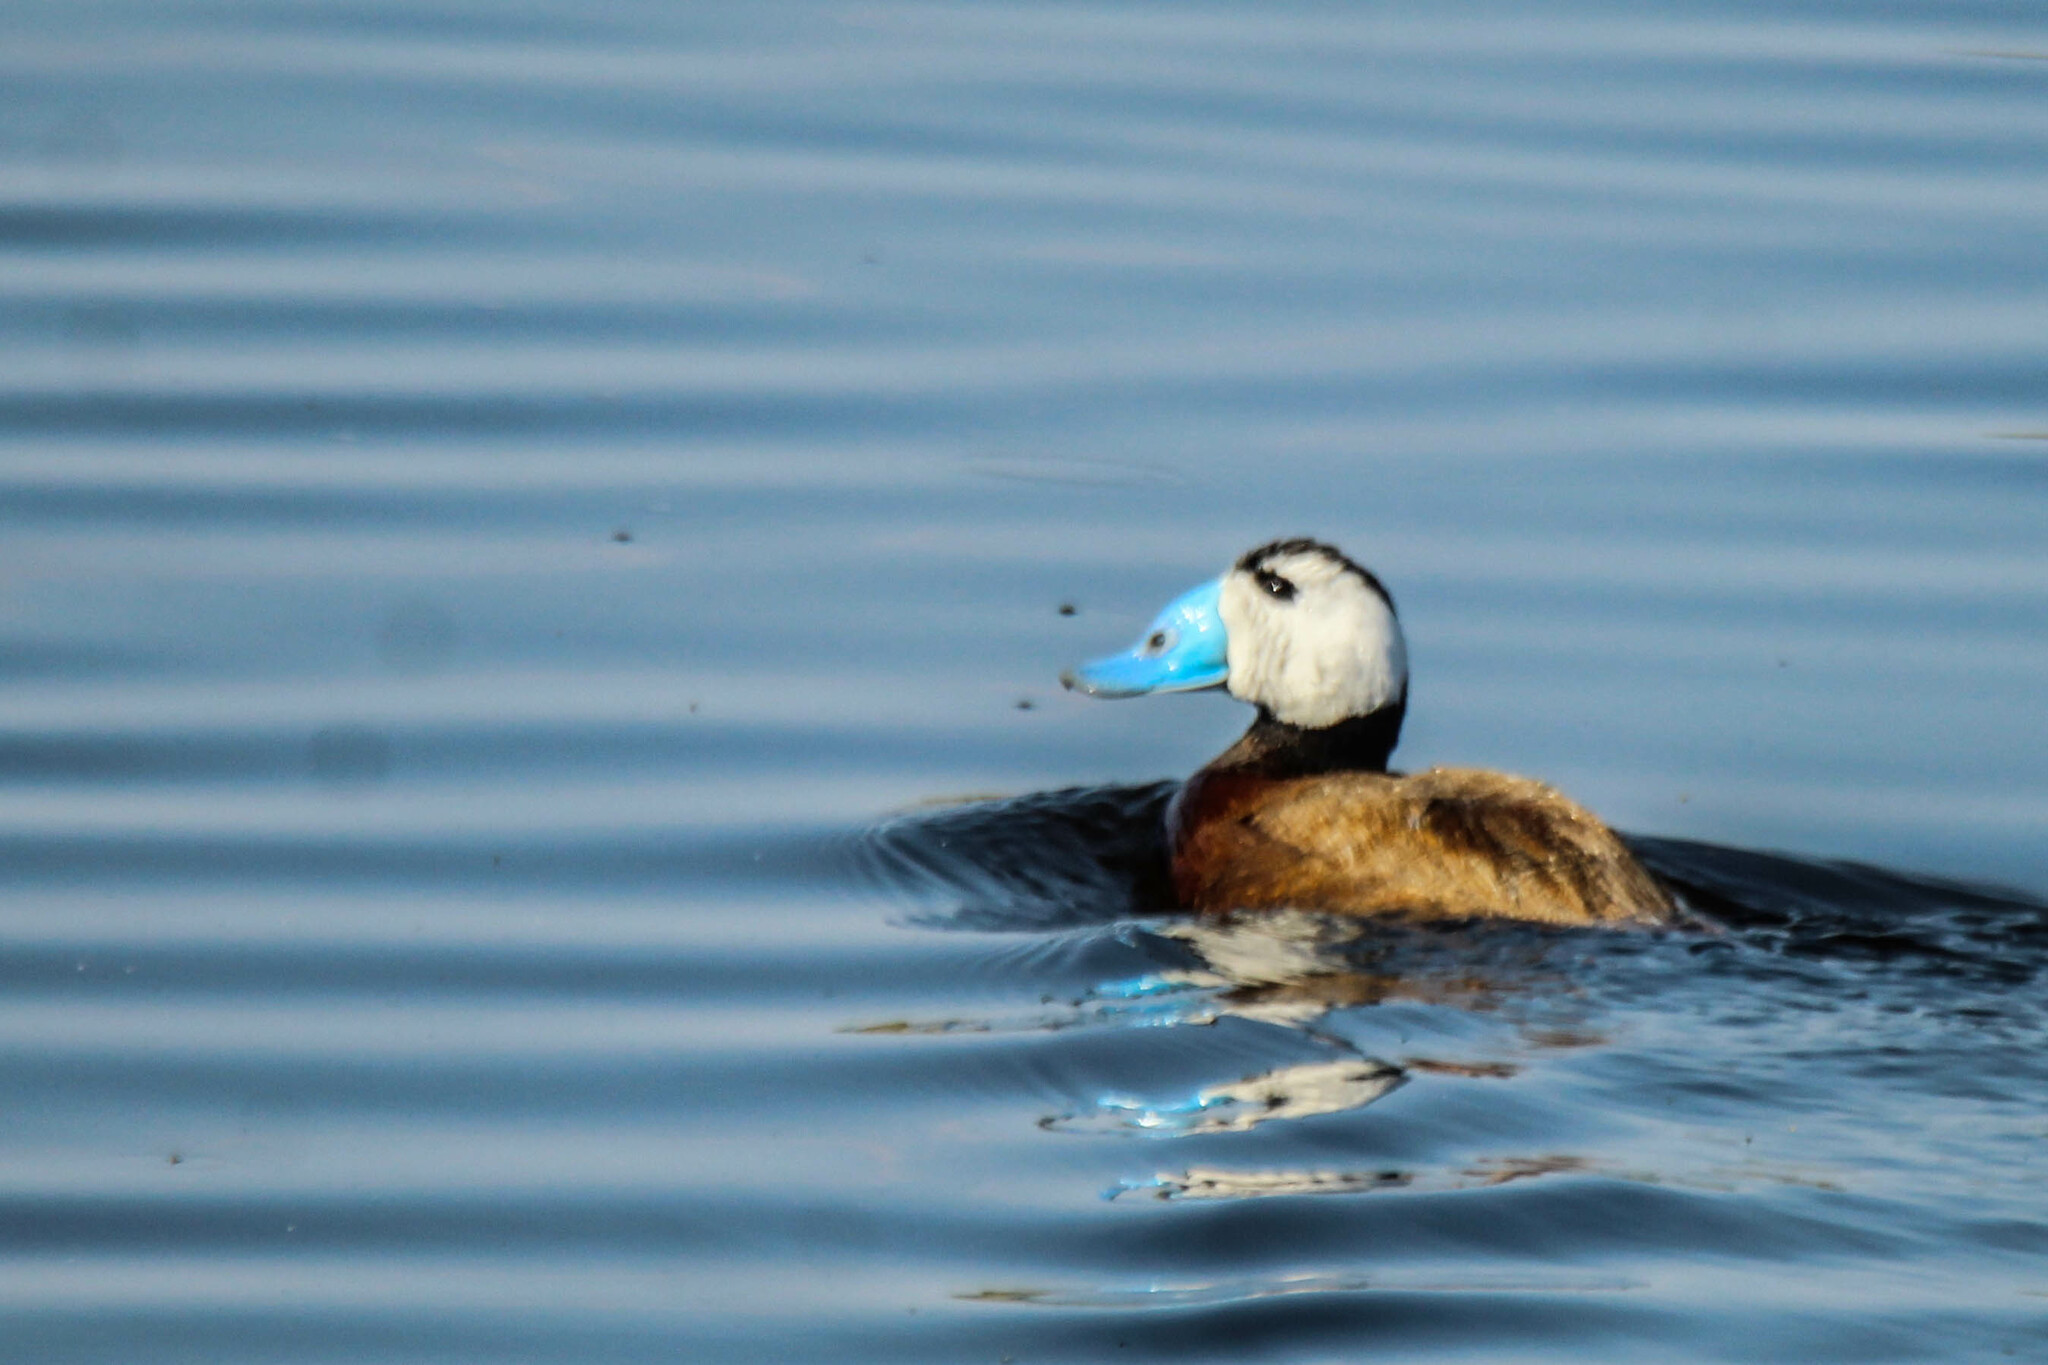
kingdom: Animalia
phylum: Chordata
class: Aves
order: Anseriformes
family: Anatidae
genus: Oxyura
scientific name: Oxyura leucocephala
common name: White-headed duck
